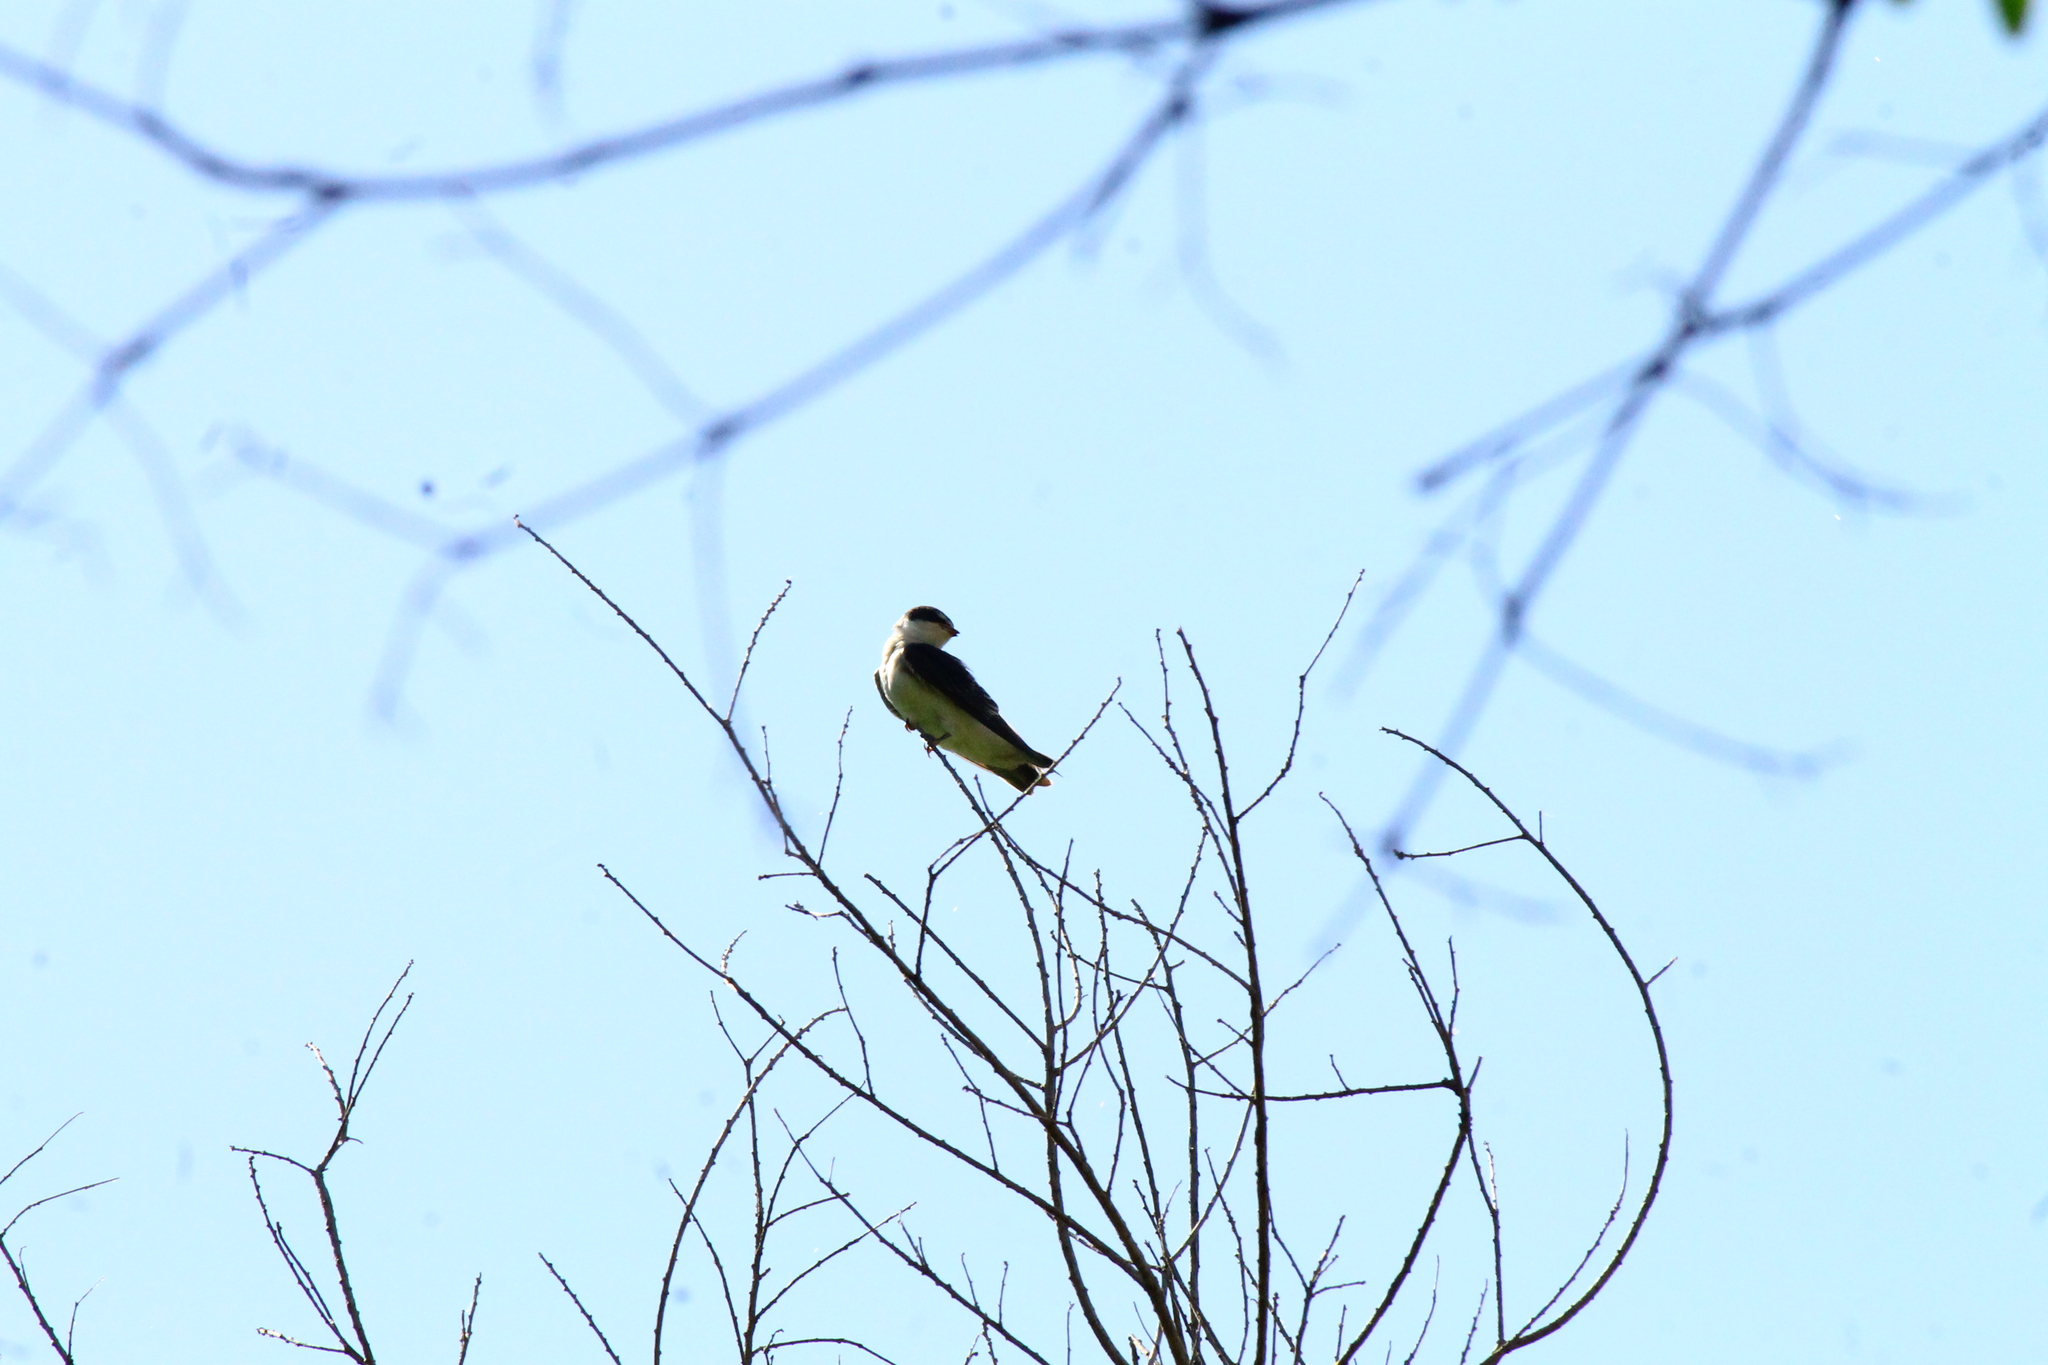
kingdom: Animalia
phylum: Chordata
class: Aves
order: Passeriformes
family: Hirundinidae
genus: Tachycineta
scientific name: Tachycineta leucorrhoa
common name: White-rumped swallow
